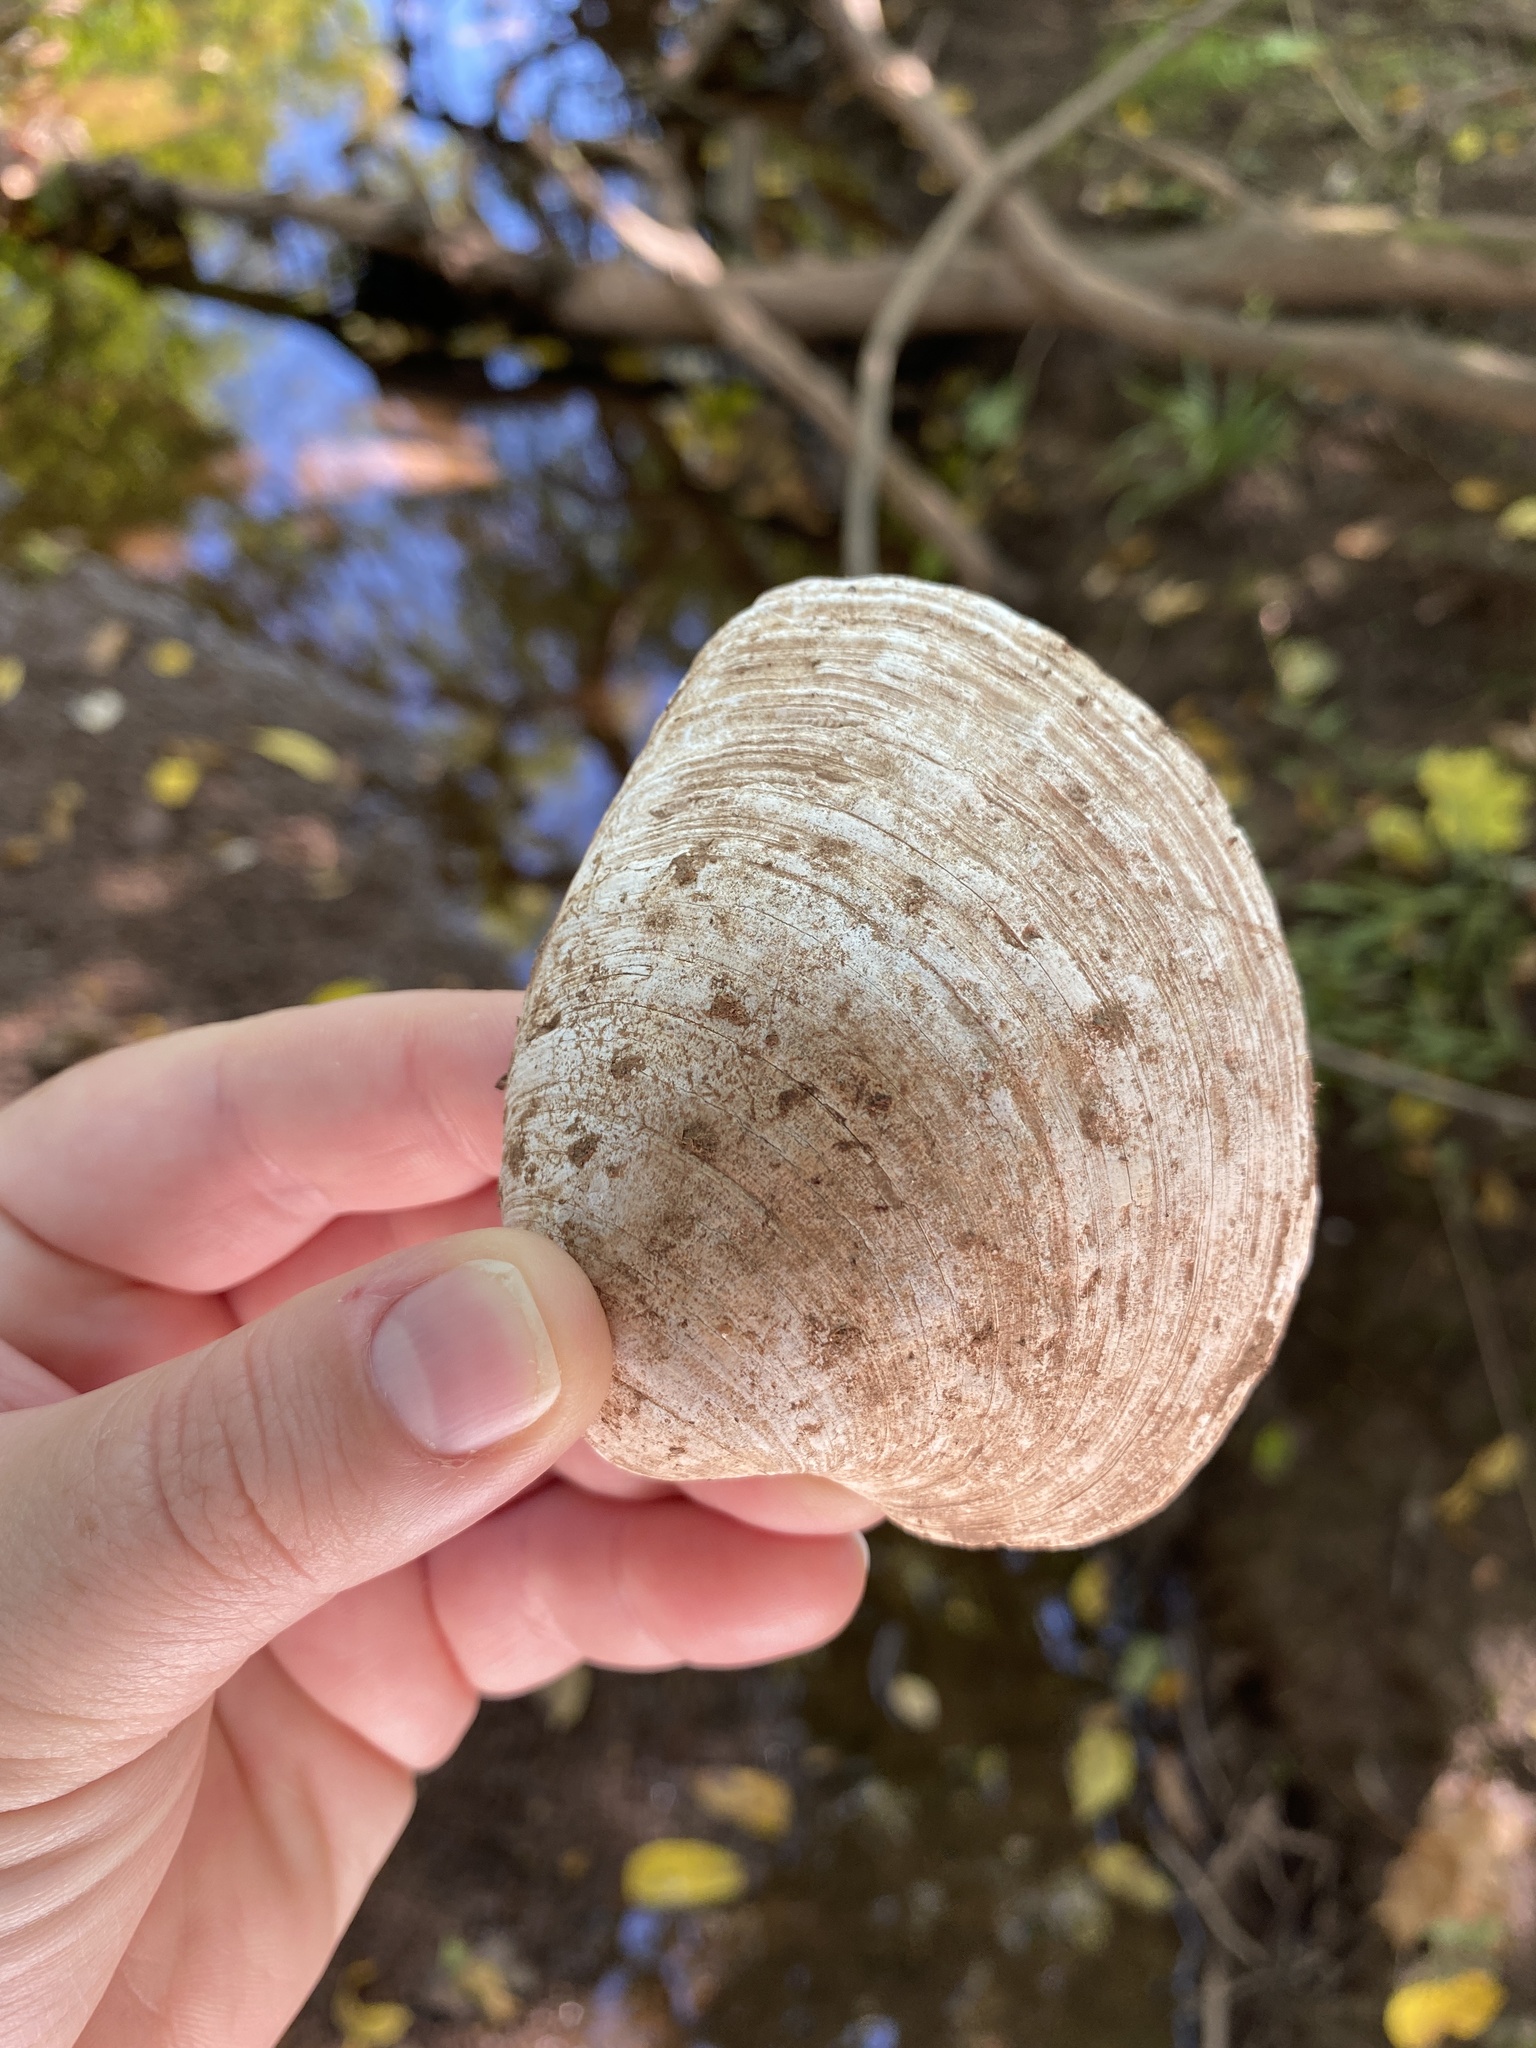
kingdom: Animalia
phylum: Mollusca
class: Bivalvia
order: Venerida
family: Veneridae
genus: Mercenaria
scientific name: Mercenaria mercenaria
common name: American hard-shelled clam
